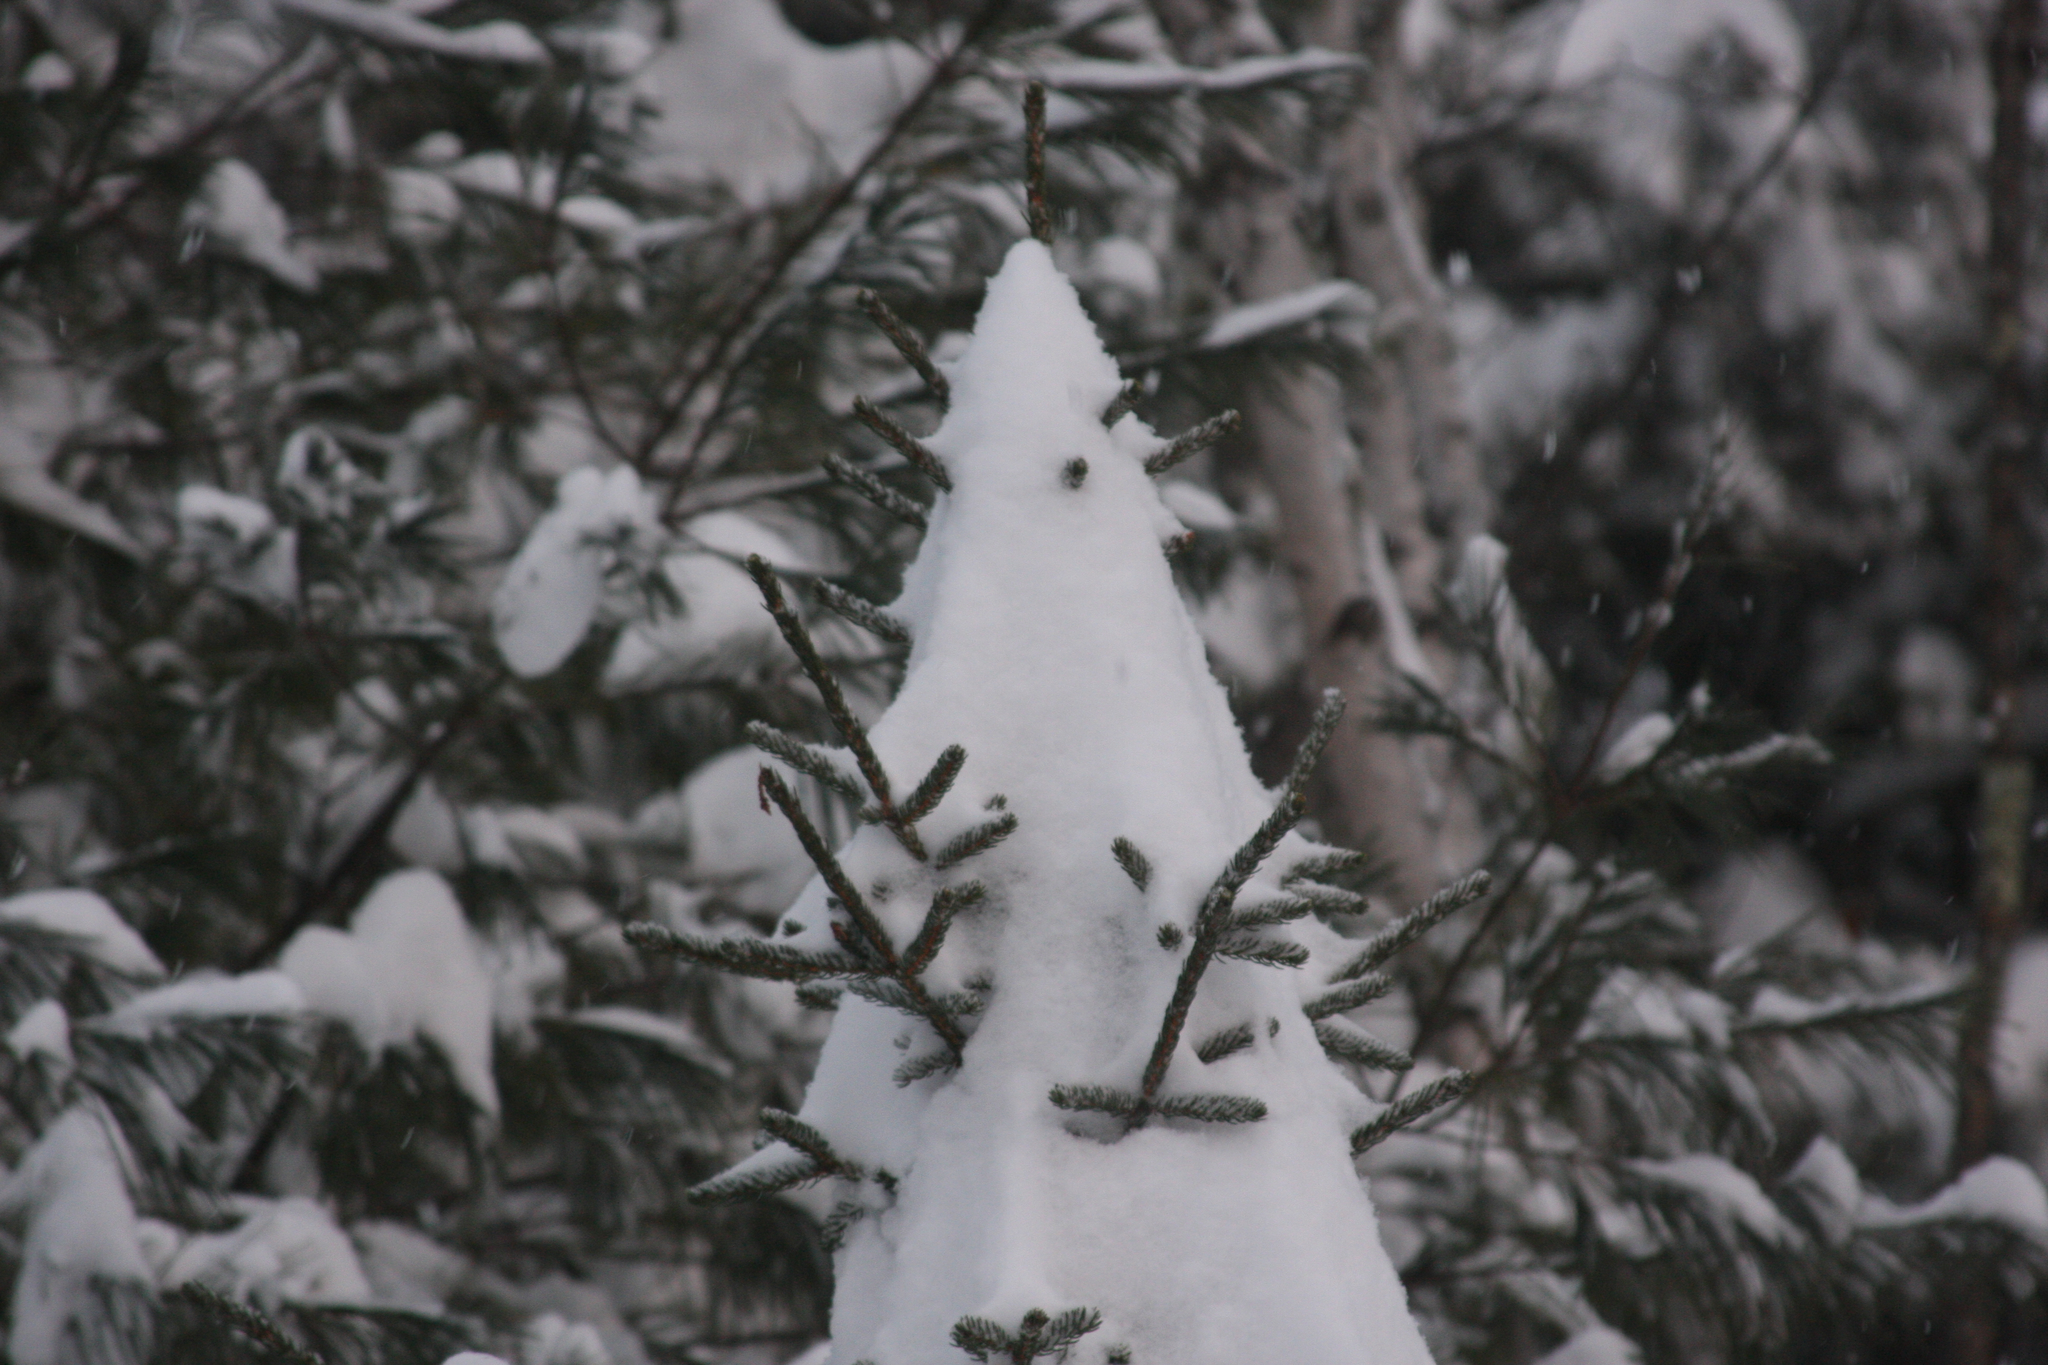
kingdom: Plantae
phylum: Tracheophyta
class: Pinopsida
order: Pinales
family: Pinaceae
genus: Picea
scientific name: Picea rubens
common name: Red spruce
